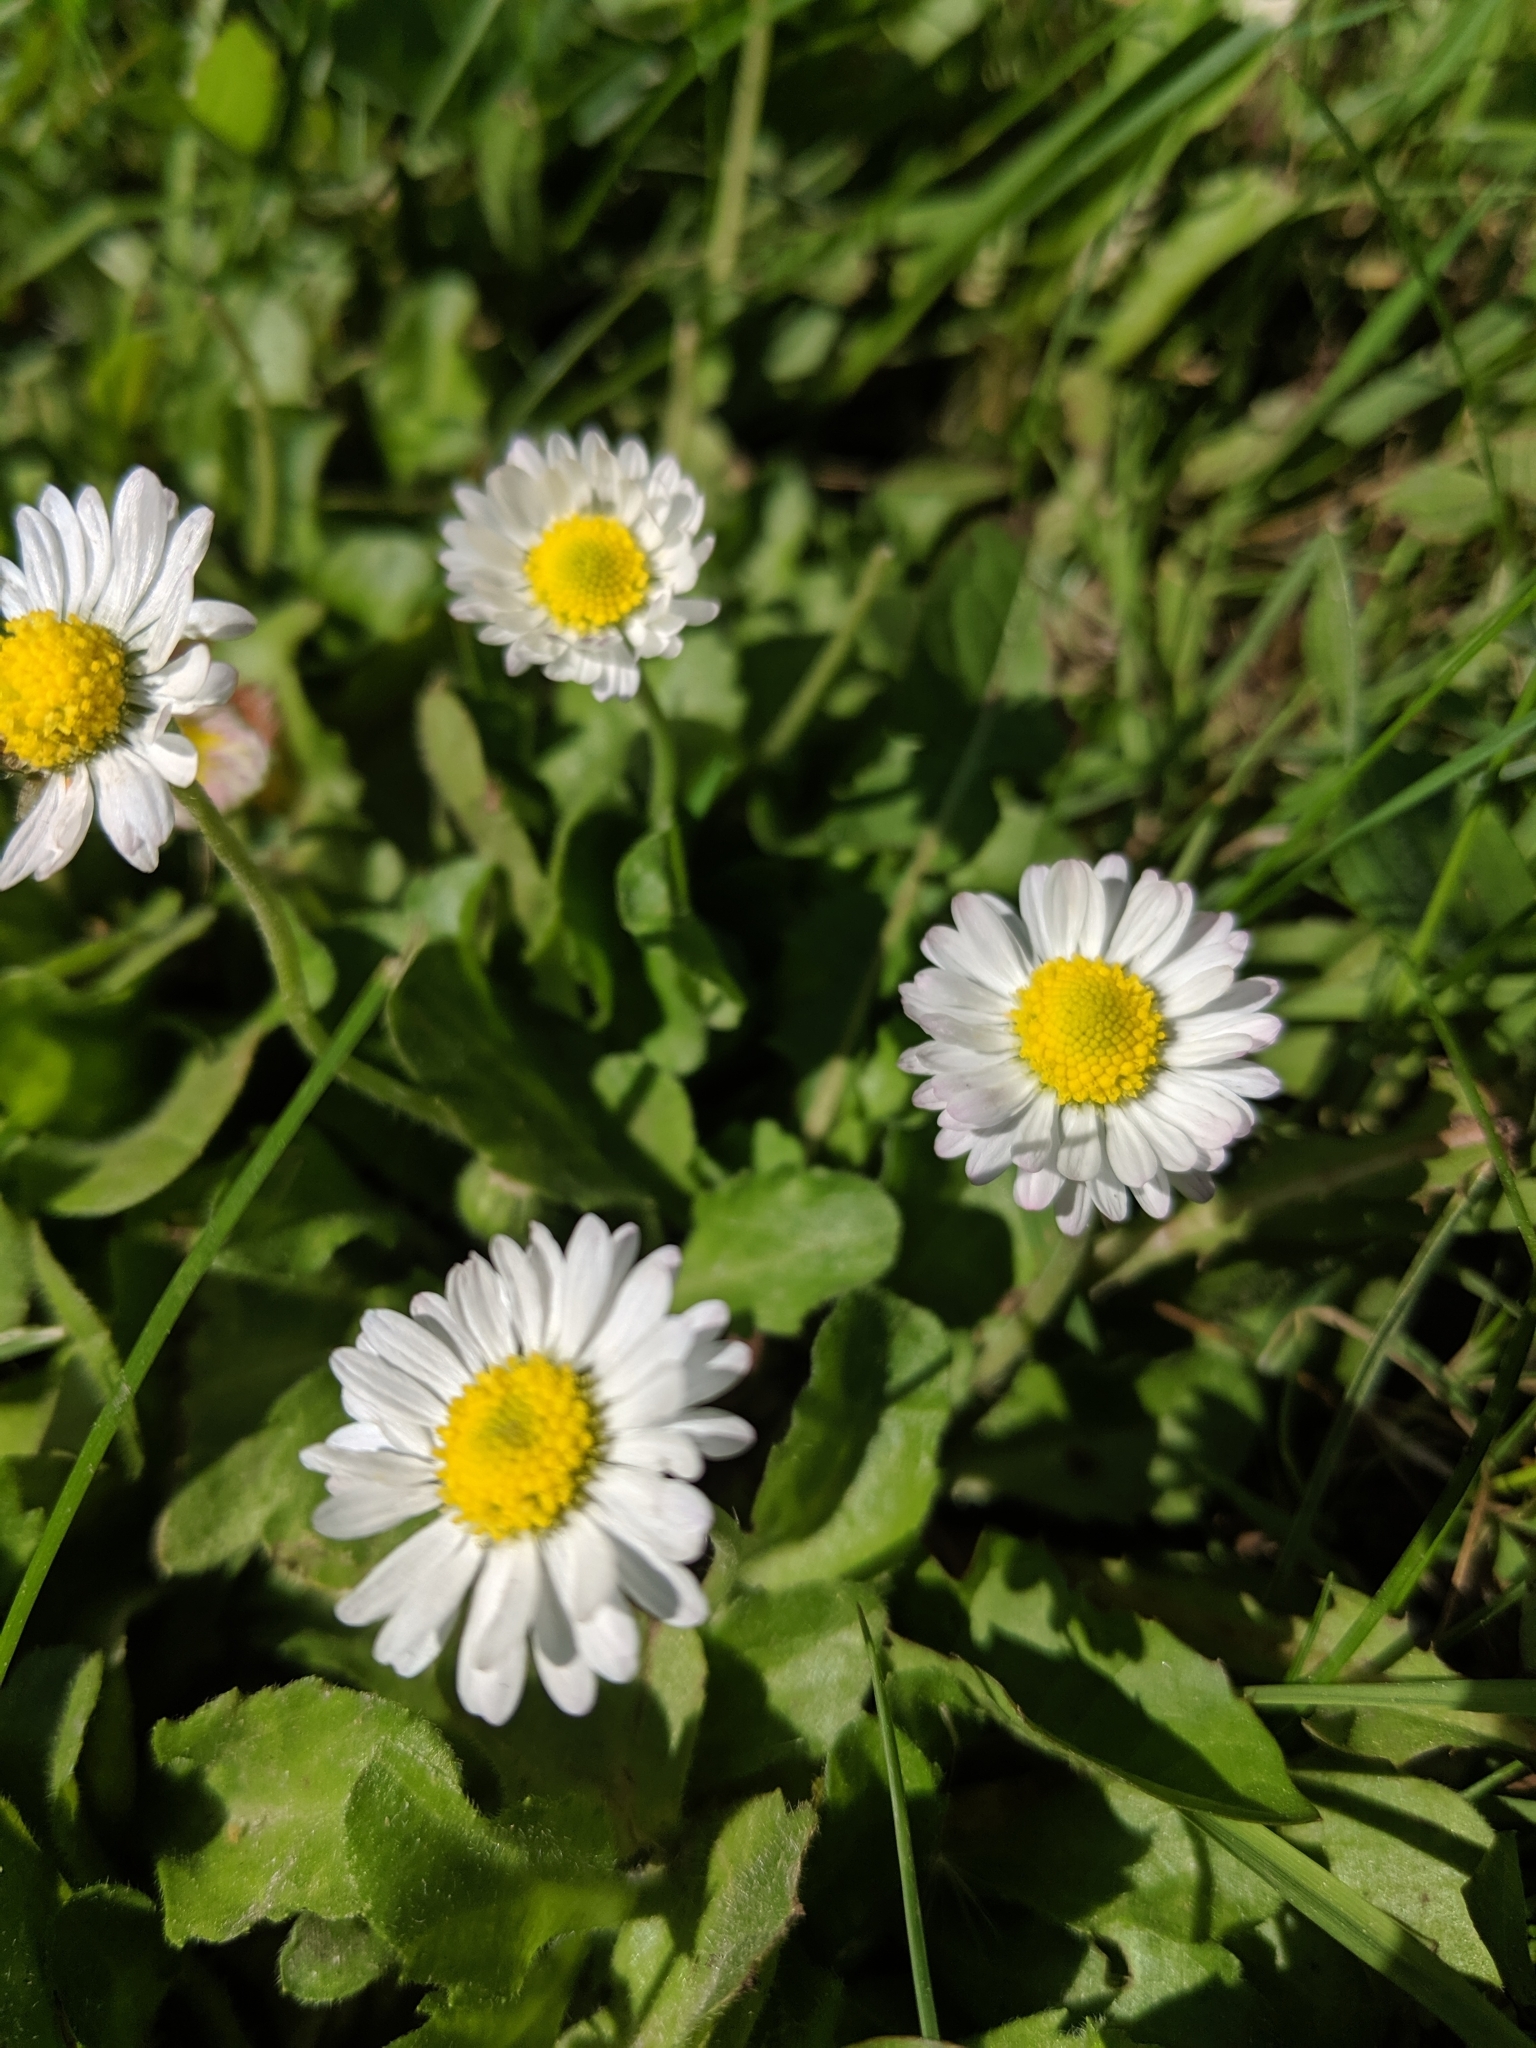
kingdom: Plantae
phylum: Tracheophyta
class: Magnoliopsida
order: Asterales
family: Asteraceae
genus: Bellis
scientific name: Bellis perennis
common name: Lawndaisy
